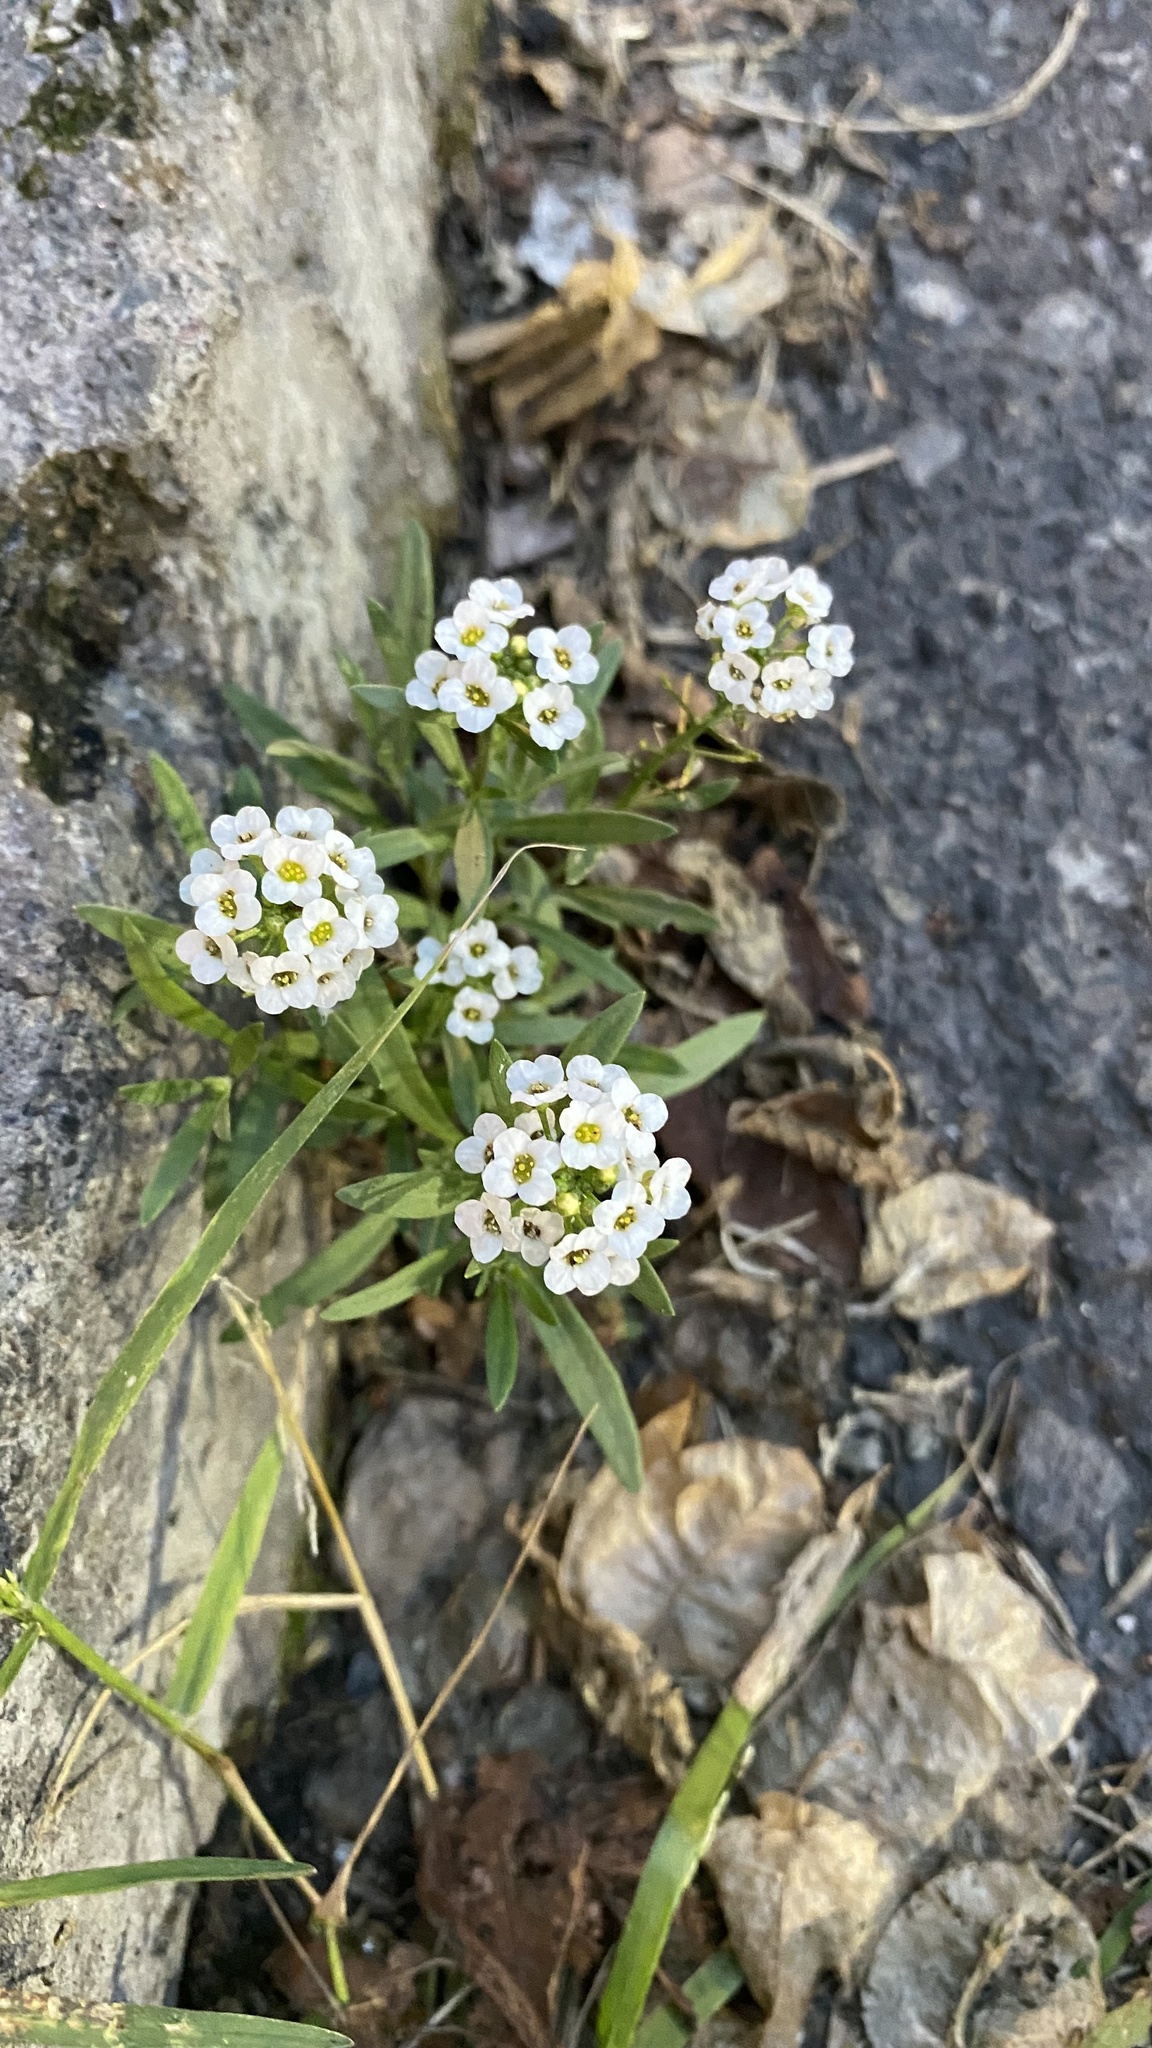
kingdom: Plantae
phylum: Tracheophyta
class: Magnoliopsida
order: Brassicales
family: Brassicaceae
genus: Lobularia
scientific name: Lobularia maritima
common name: Sweet alison
